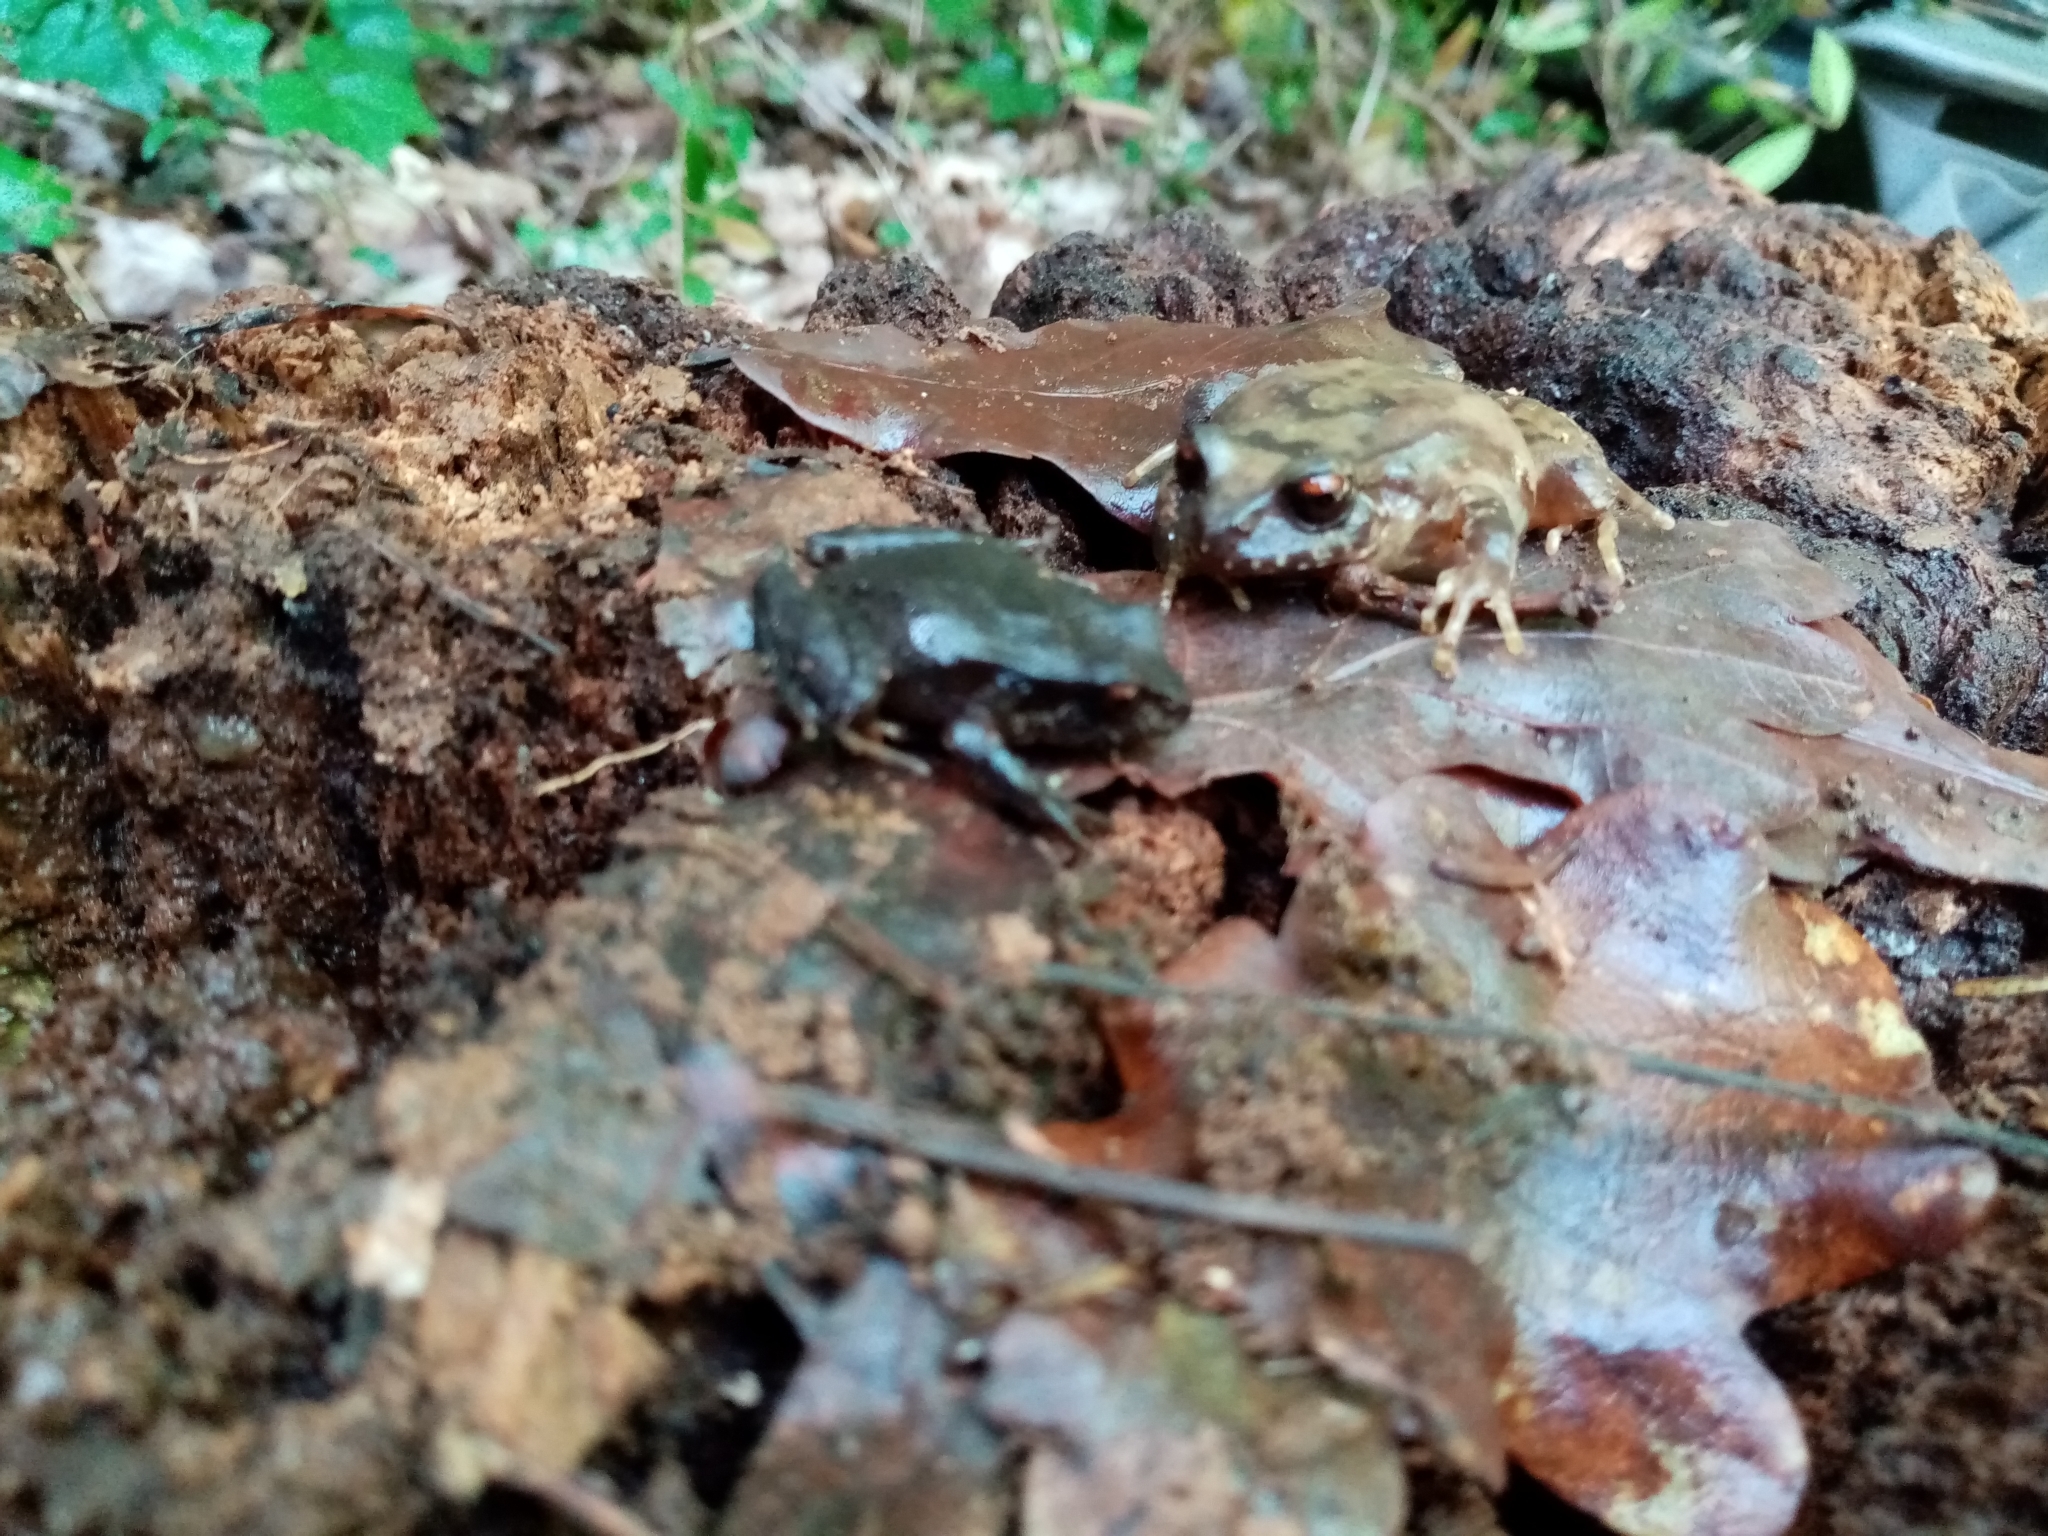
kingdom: Animalia
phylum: Chordata
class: Amphibia
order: Anura
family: Alsodidae
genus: Eupsophus
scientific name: Eupsophus roseus
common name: Rosy ground frog
